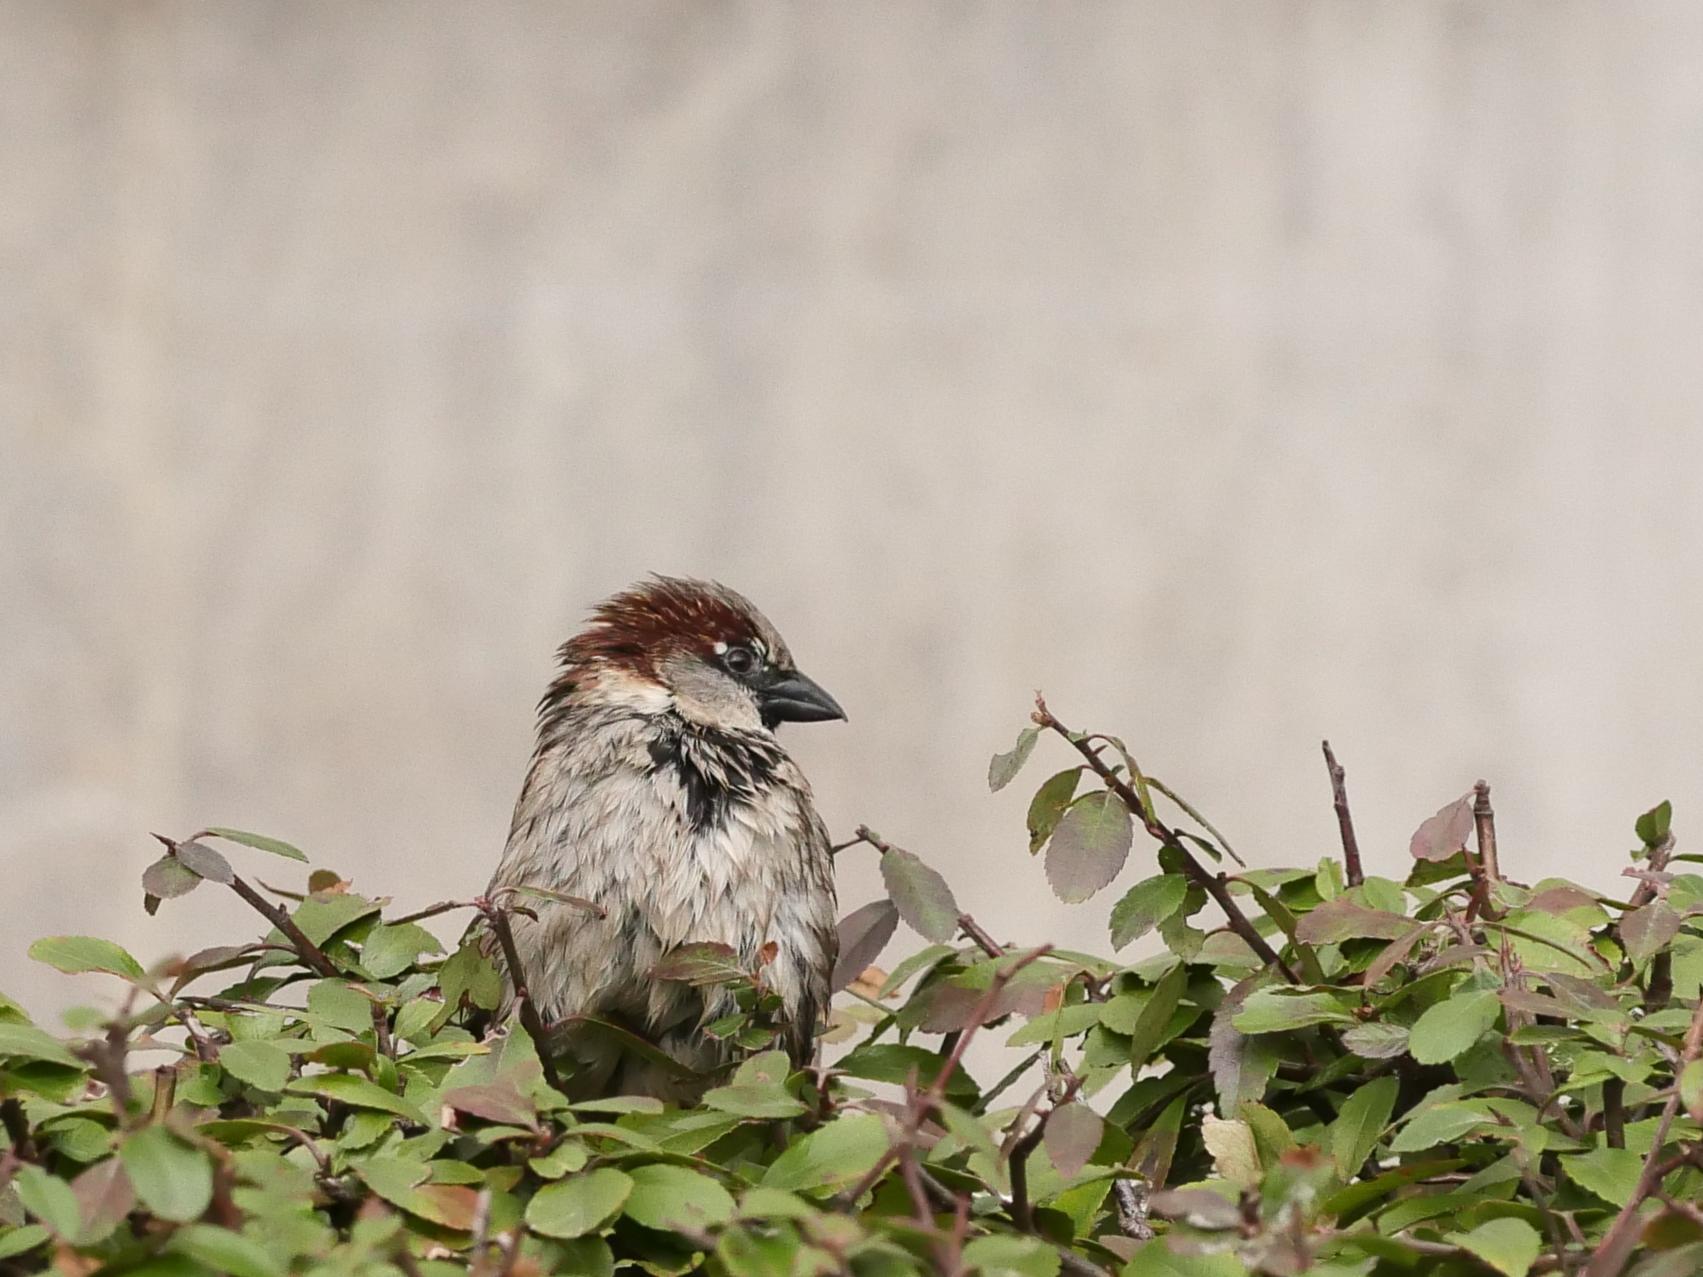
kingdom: Animalia
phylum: Chordata
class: Aves
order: Passeriformes
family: Passeridae
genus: Passer
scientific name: Passer domesticus
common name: House sparrow
